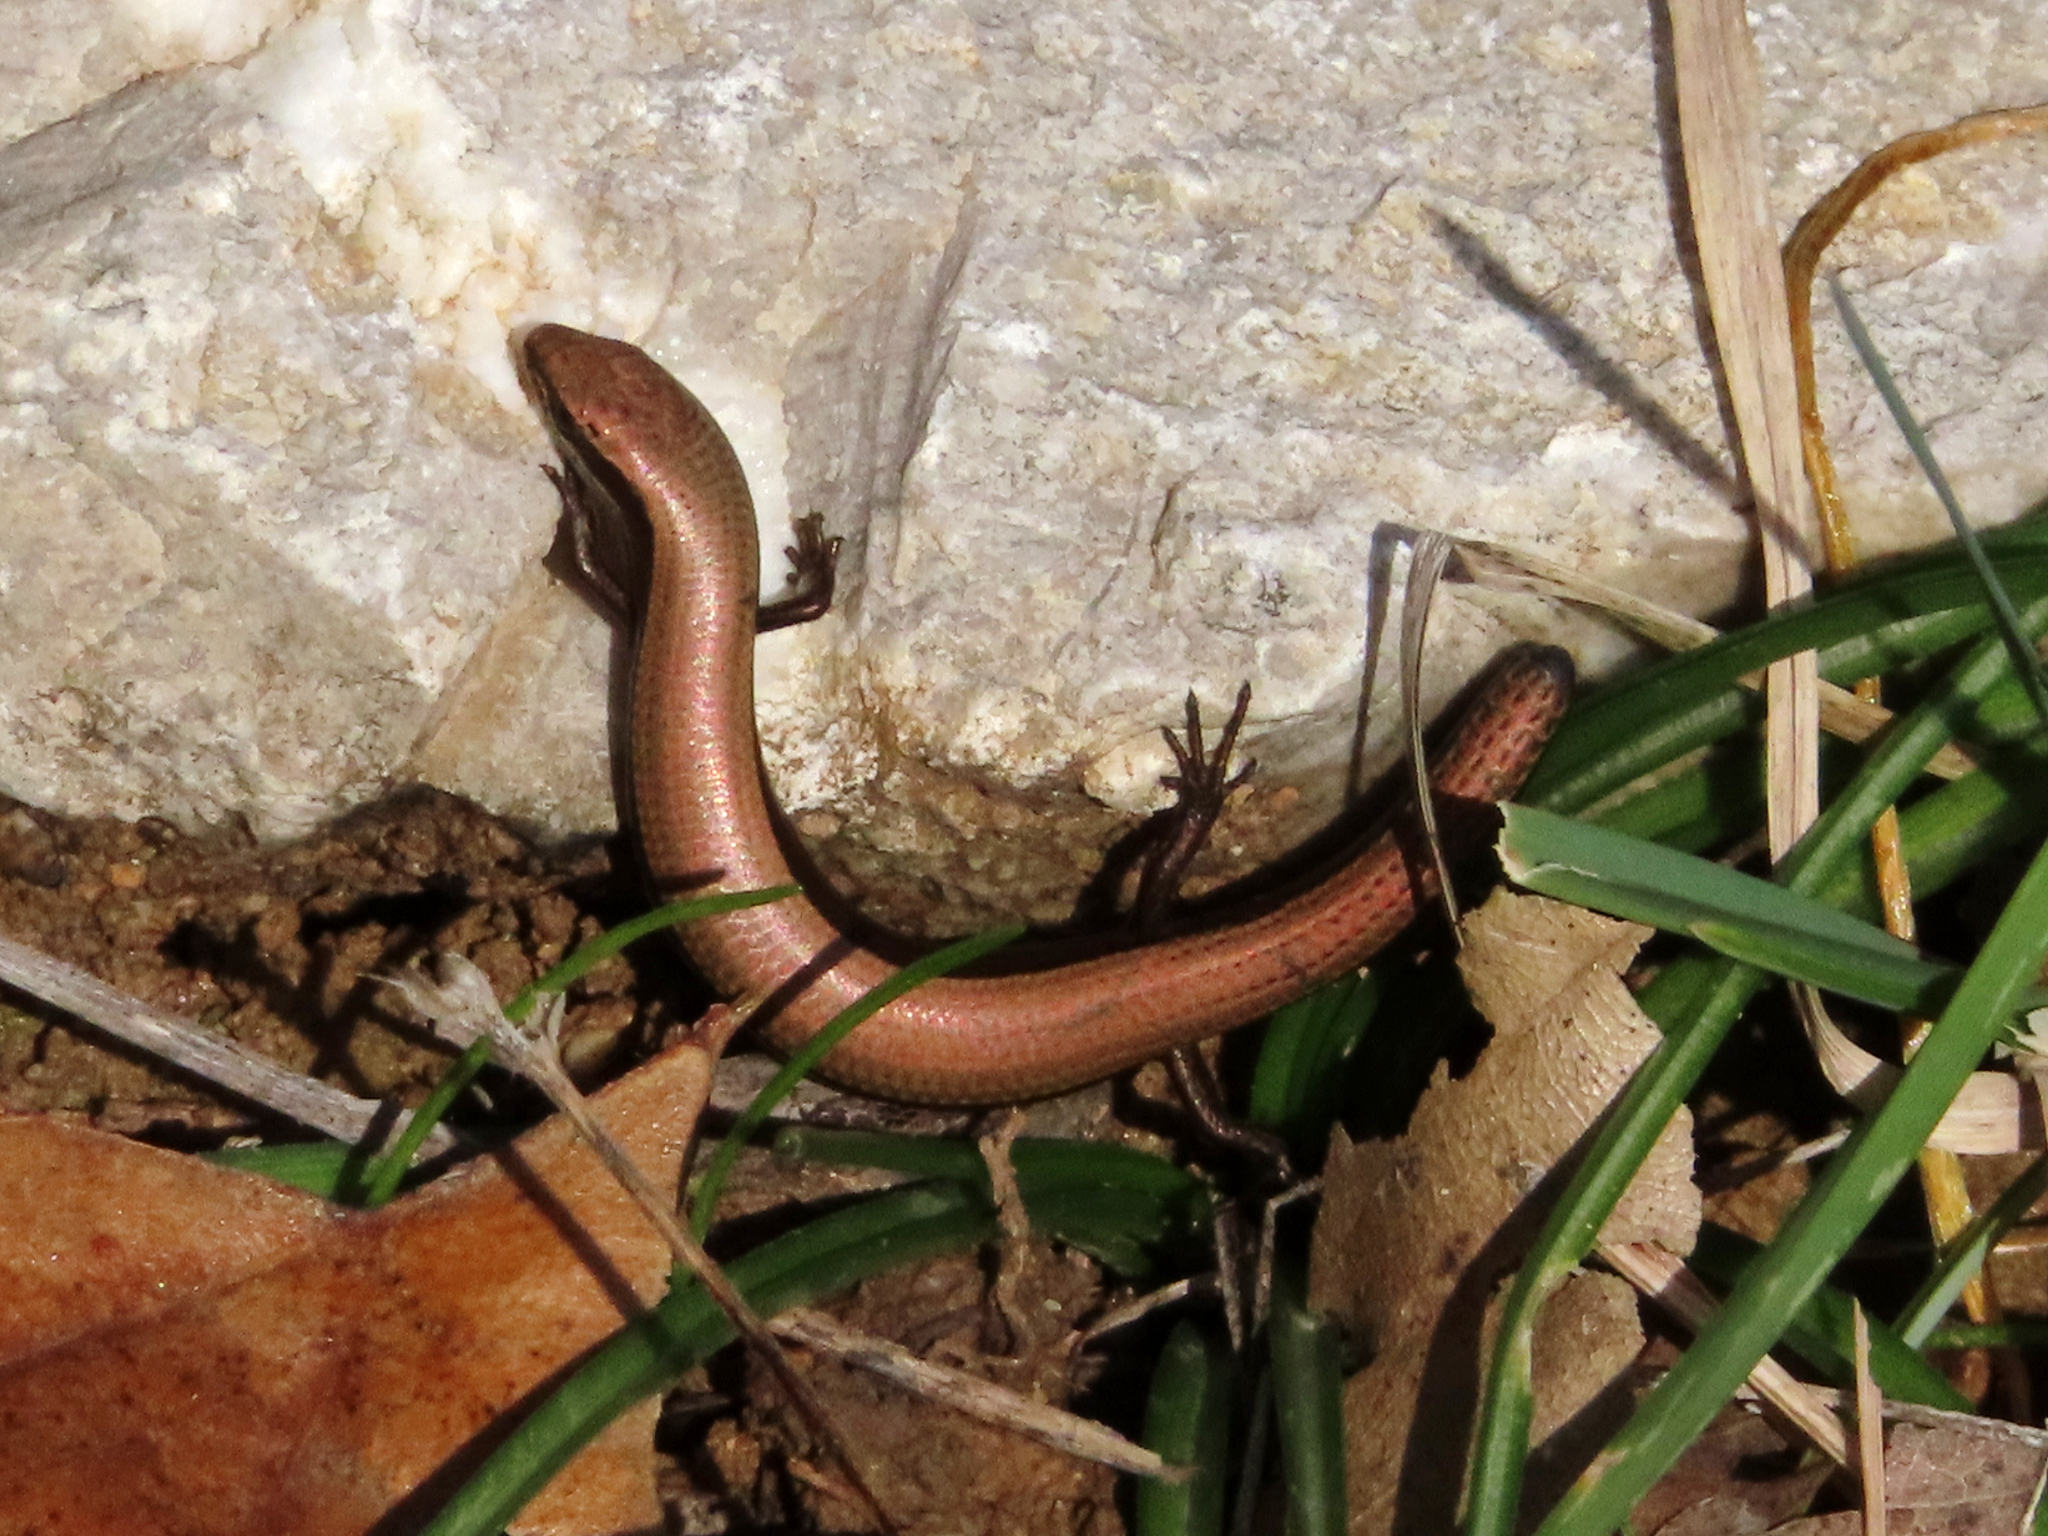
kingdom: Animalia
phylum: Chordata
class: Squamata
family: Scincidae
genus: Ablepharus
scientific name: Ablepharus kitaibelii
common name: Juniper skink
